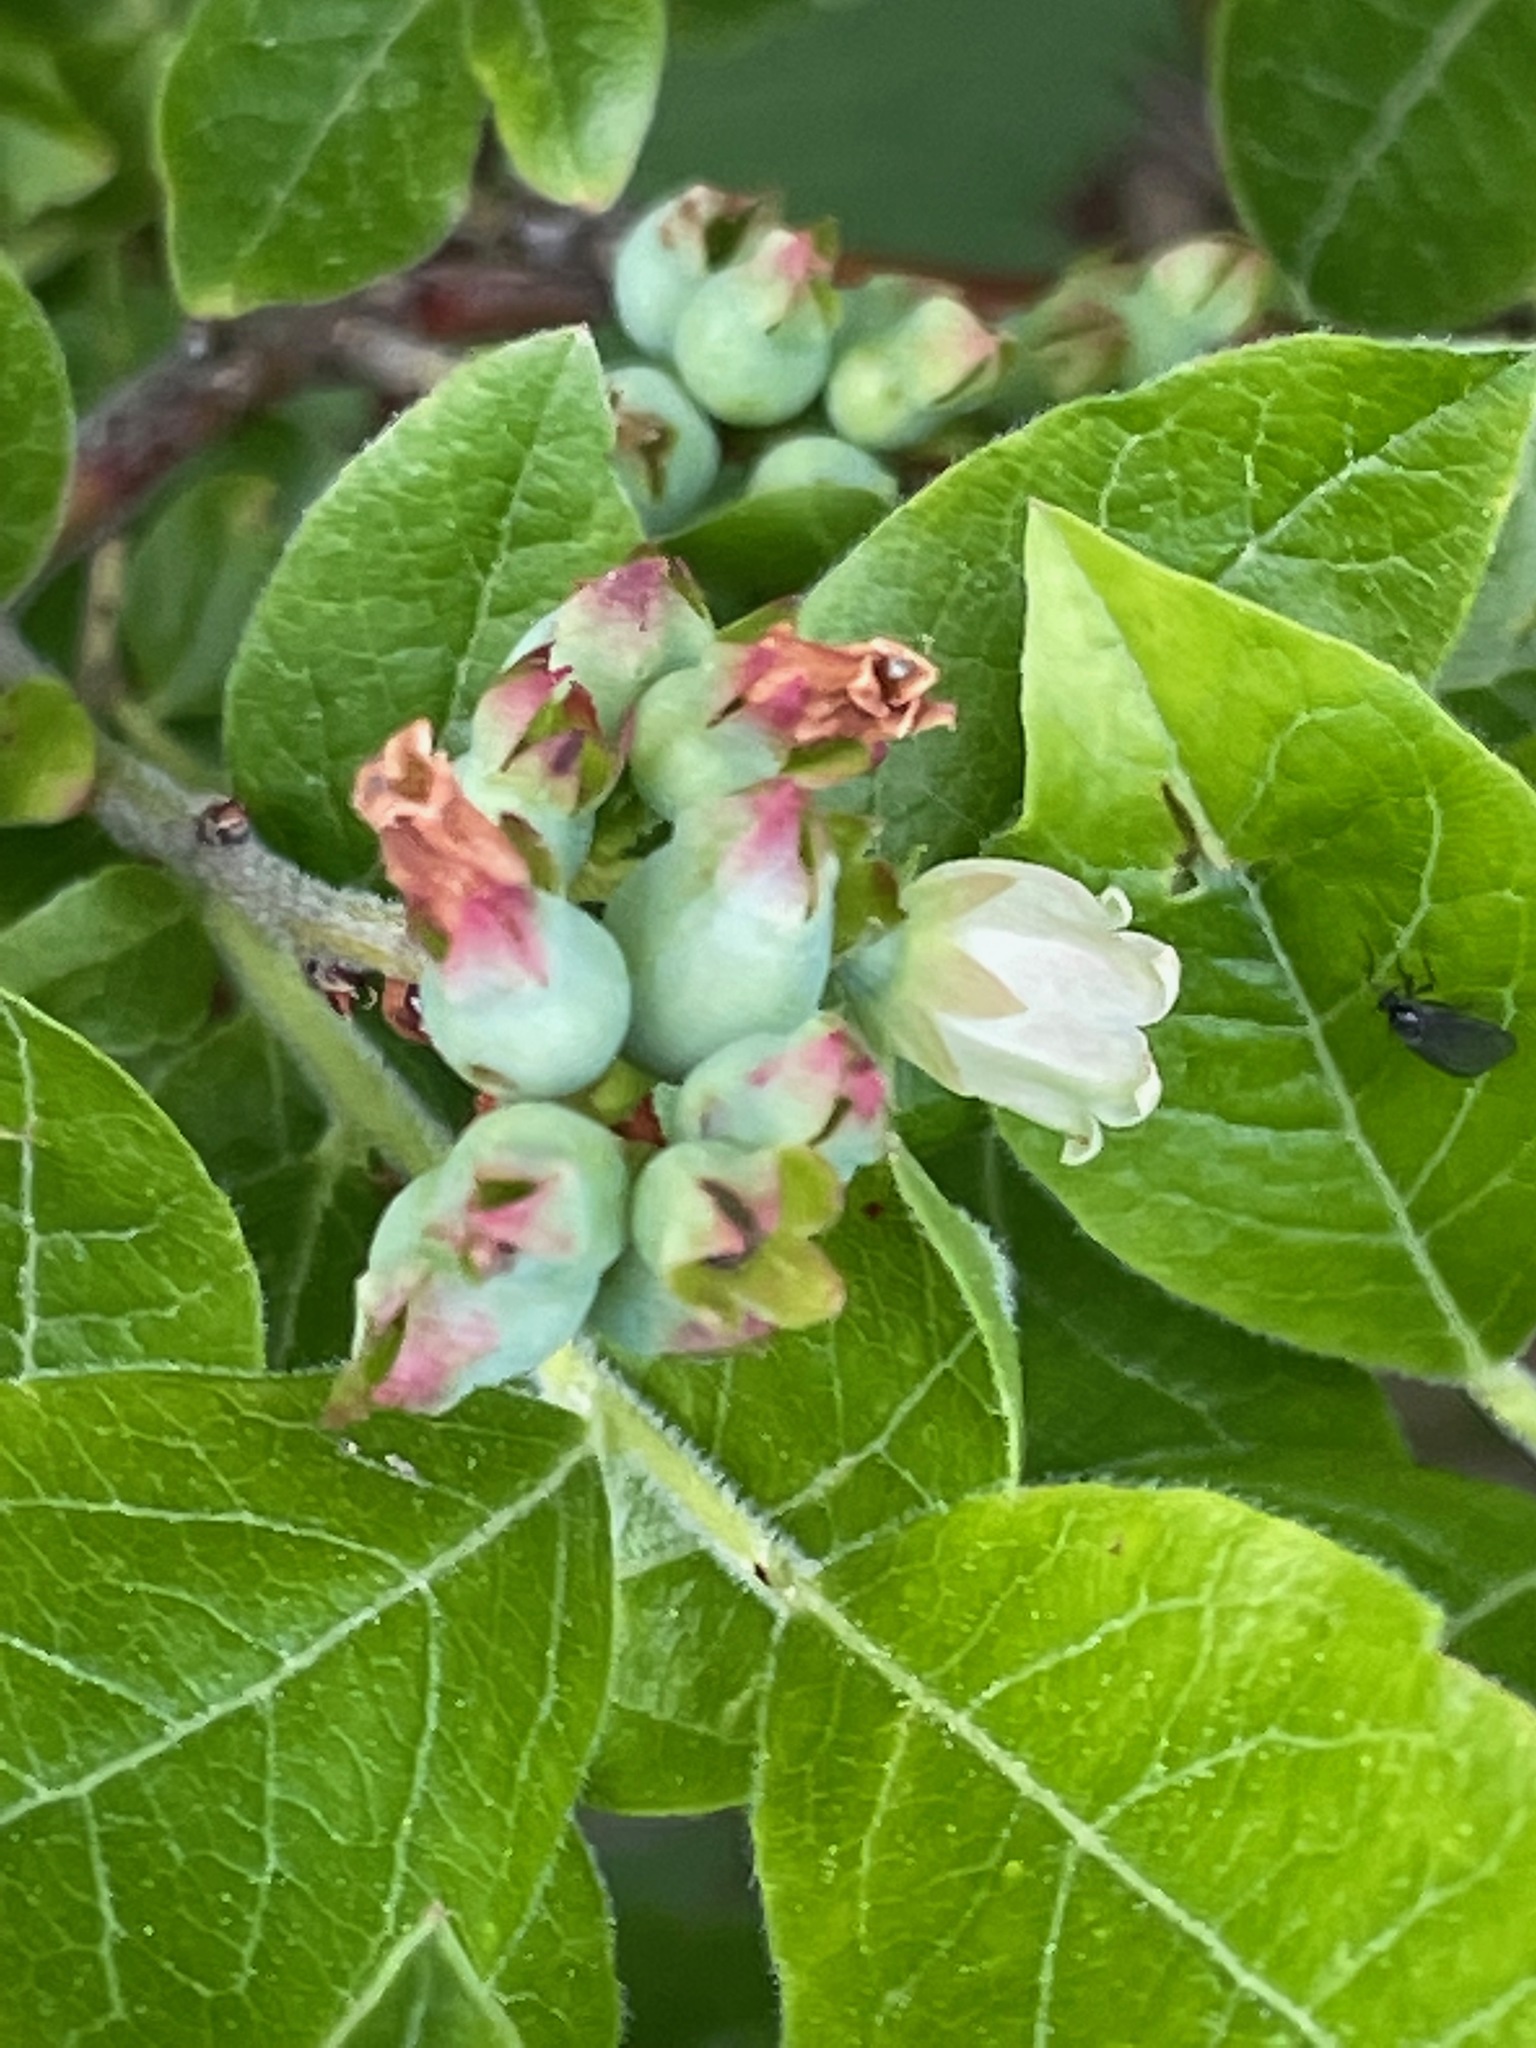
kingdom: Plantae
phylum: Tracheophyta
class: Magnoliopsida
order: Ericales
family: Ericaceae
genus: Vaccinium
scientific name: Vaccinium myrtilloides
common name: Canada blueberry
